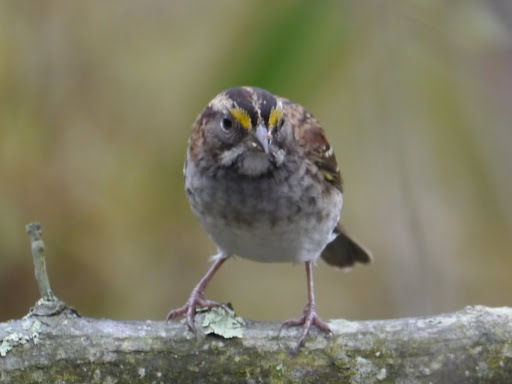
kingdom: Animalia
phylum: Chordata
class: Aves
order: Passeriformes
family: Passerellidae
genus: Zonotrichia
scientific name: Zonotrichia albicollis
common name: White-throated sparrow
